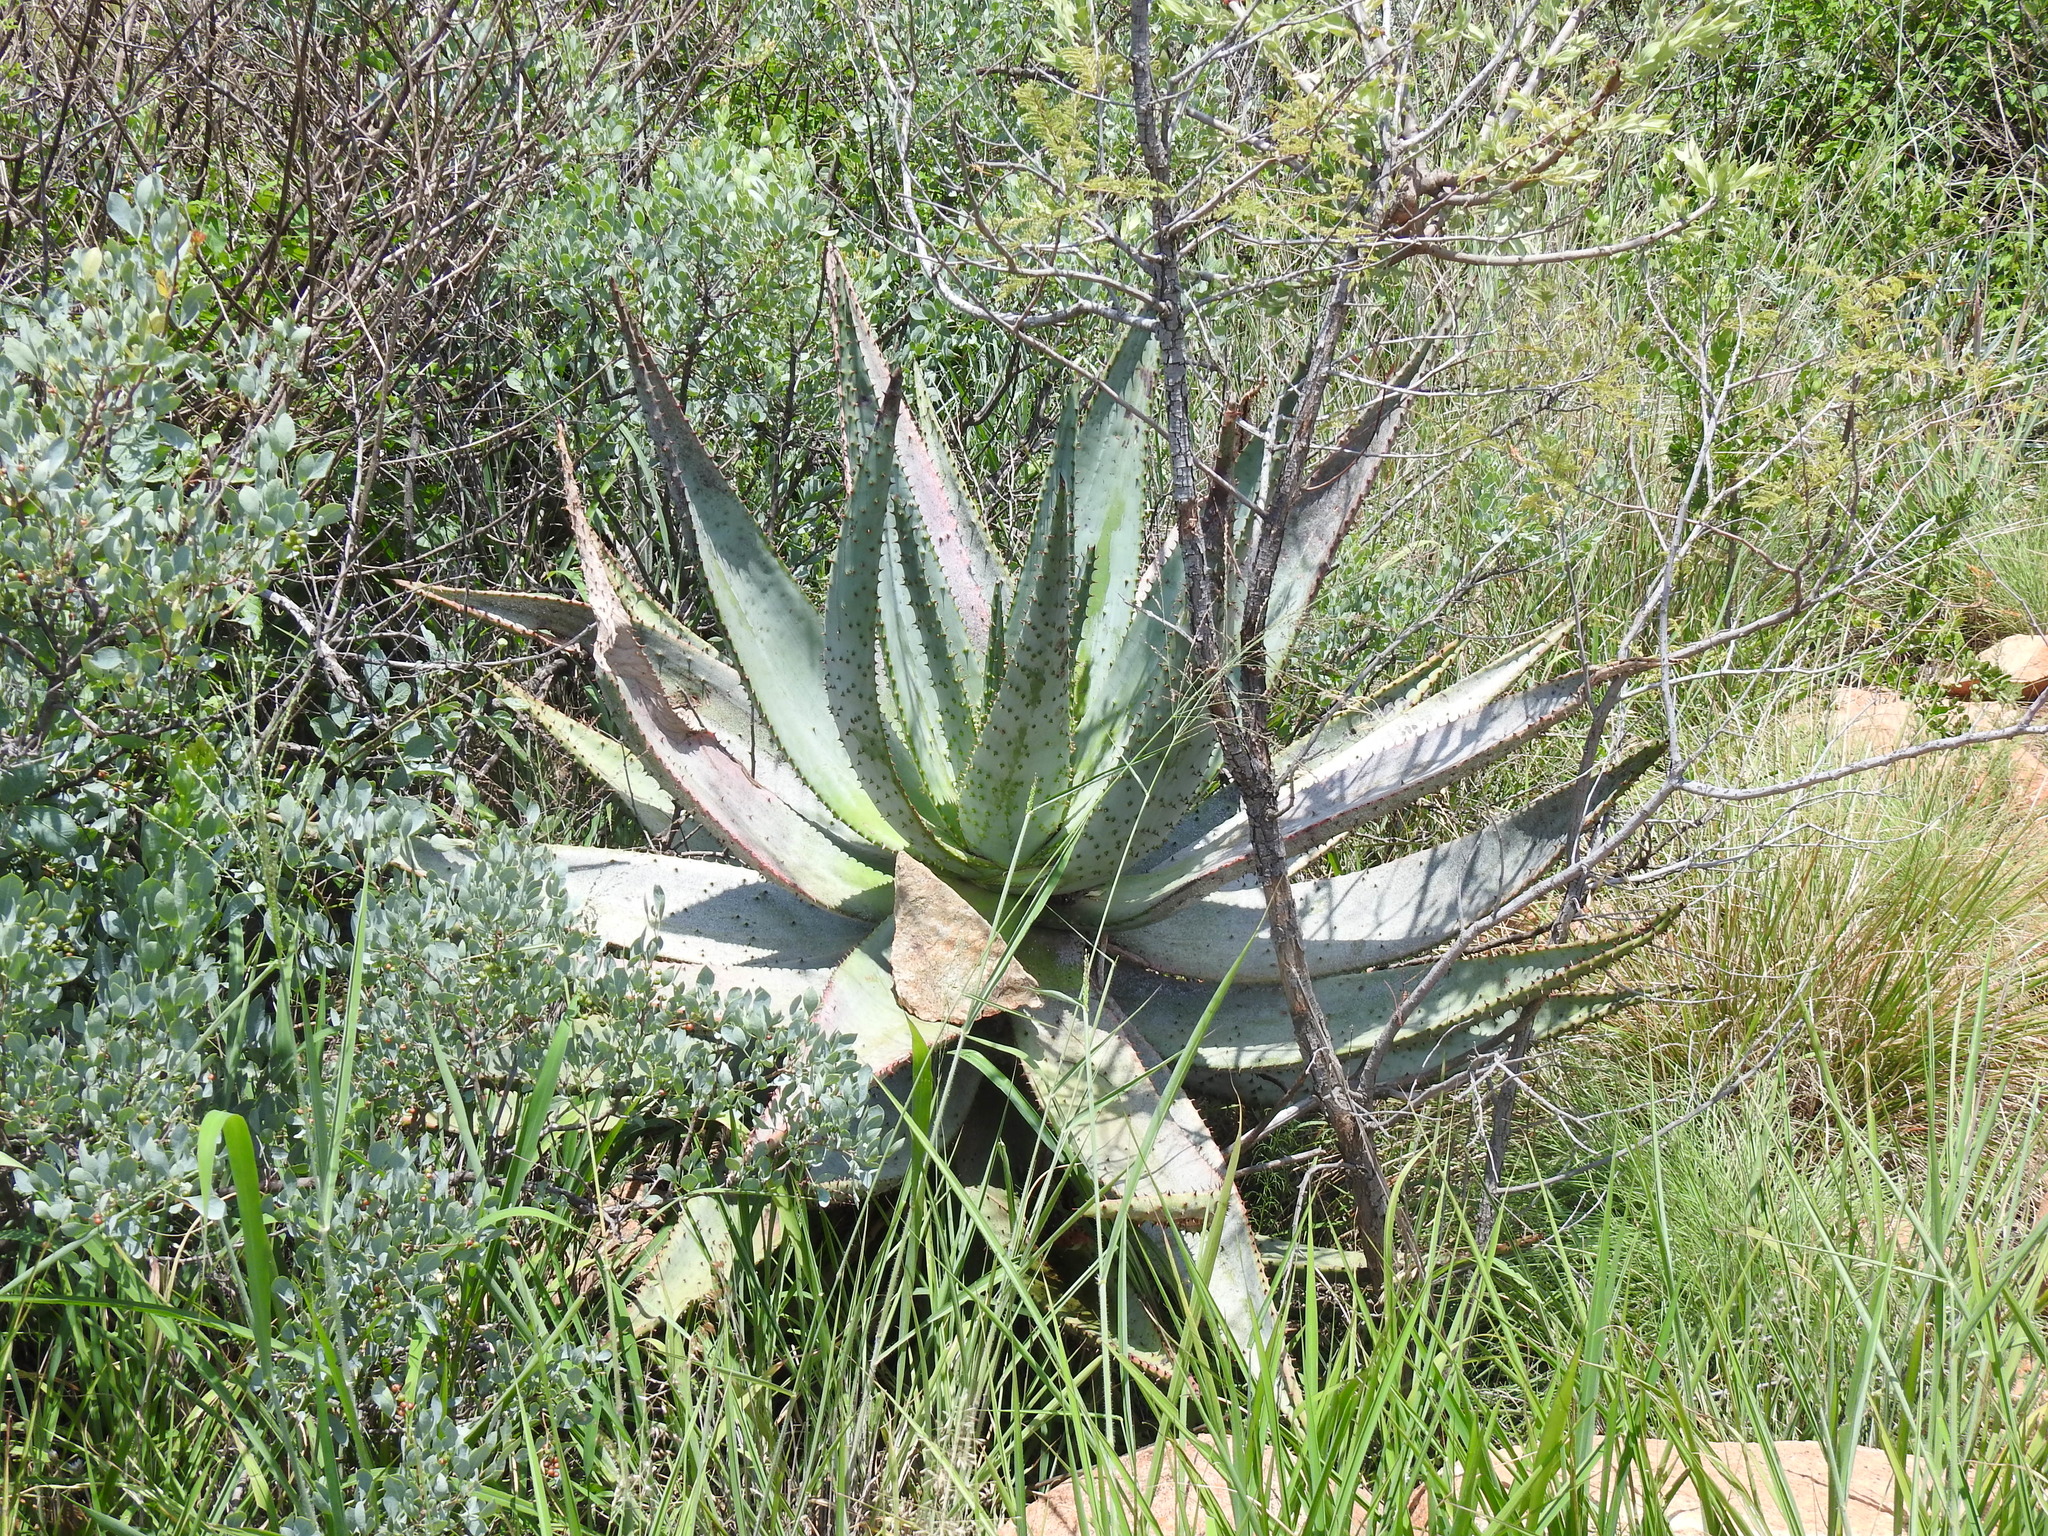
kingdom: Plantae
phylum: Tracheophyta
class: Liliopsida
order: Asparagales
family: Asphodelaceae
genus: Aloe
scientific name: Aloe marlothii
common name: Flat-flowered aloe
